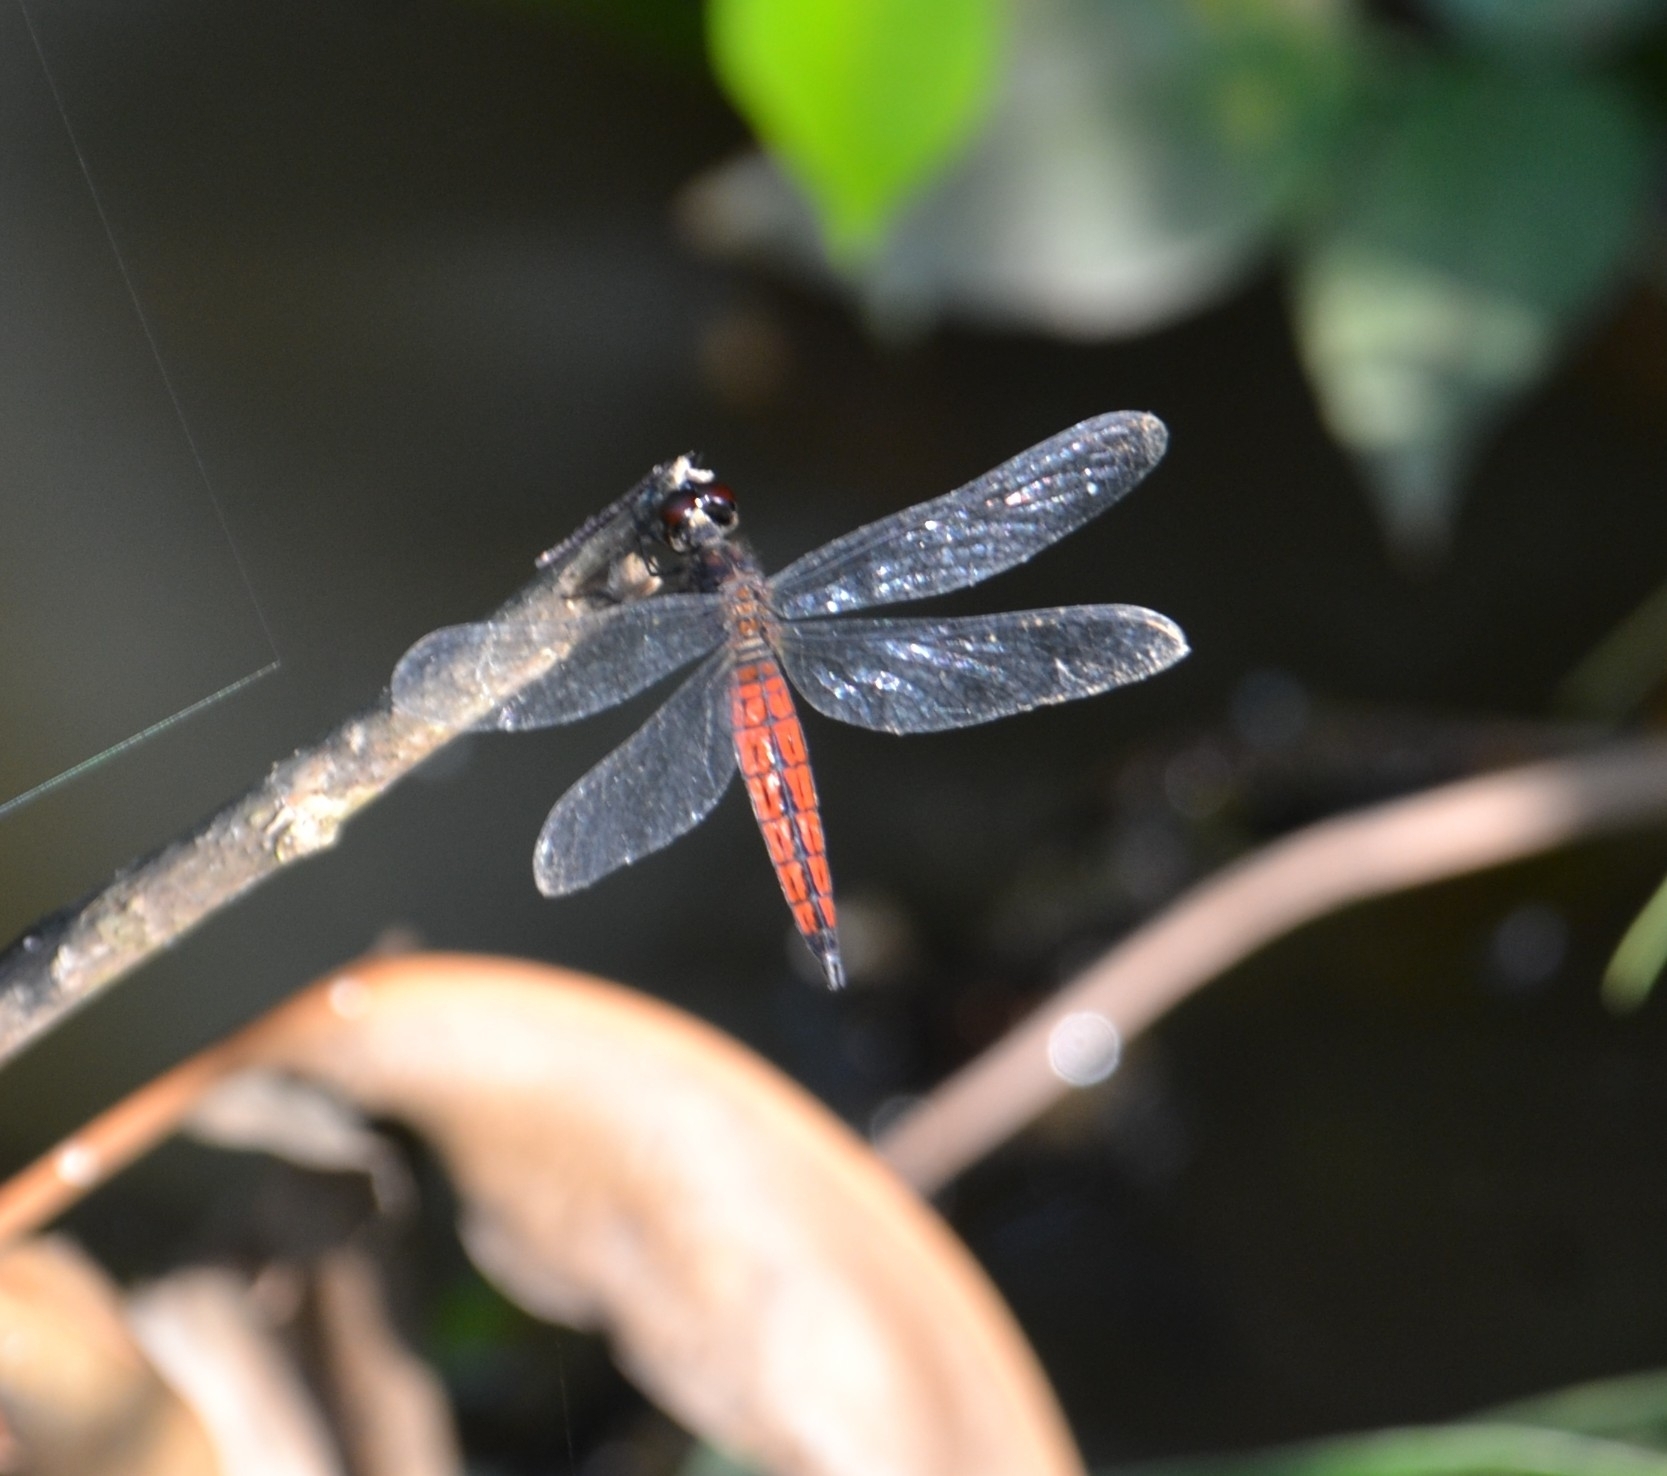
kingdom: Animalia
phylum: Arthropoda
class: Insecta
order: Odonata
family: Libellulidae
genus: Lyriothemis
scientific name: Lyriothemis acigastra
